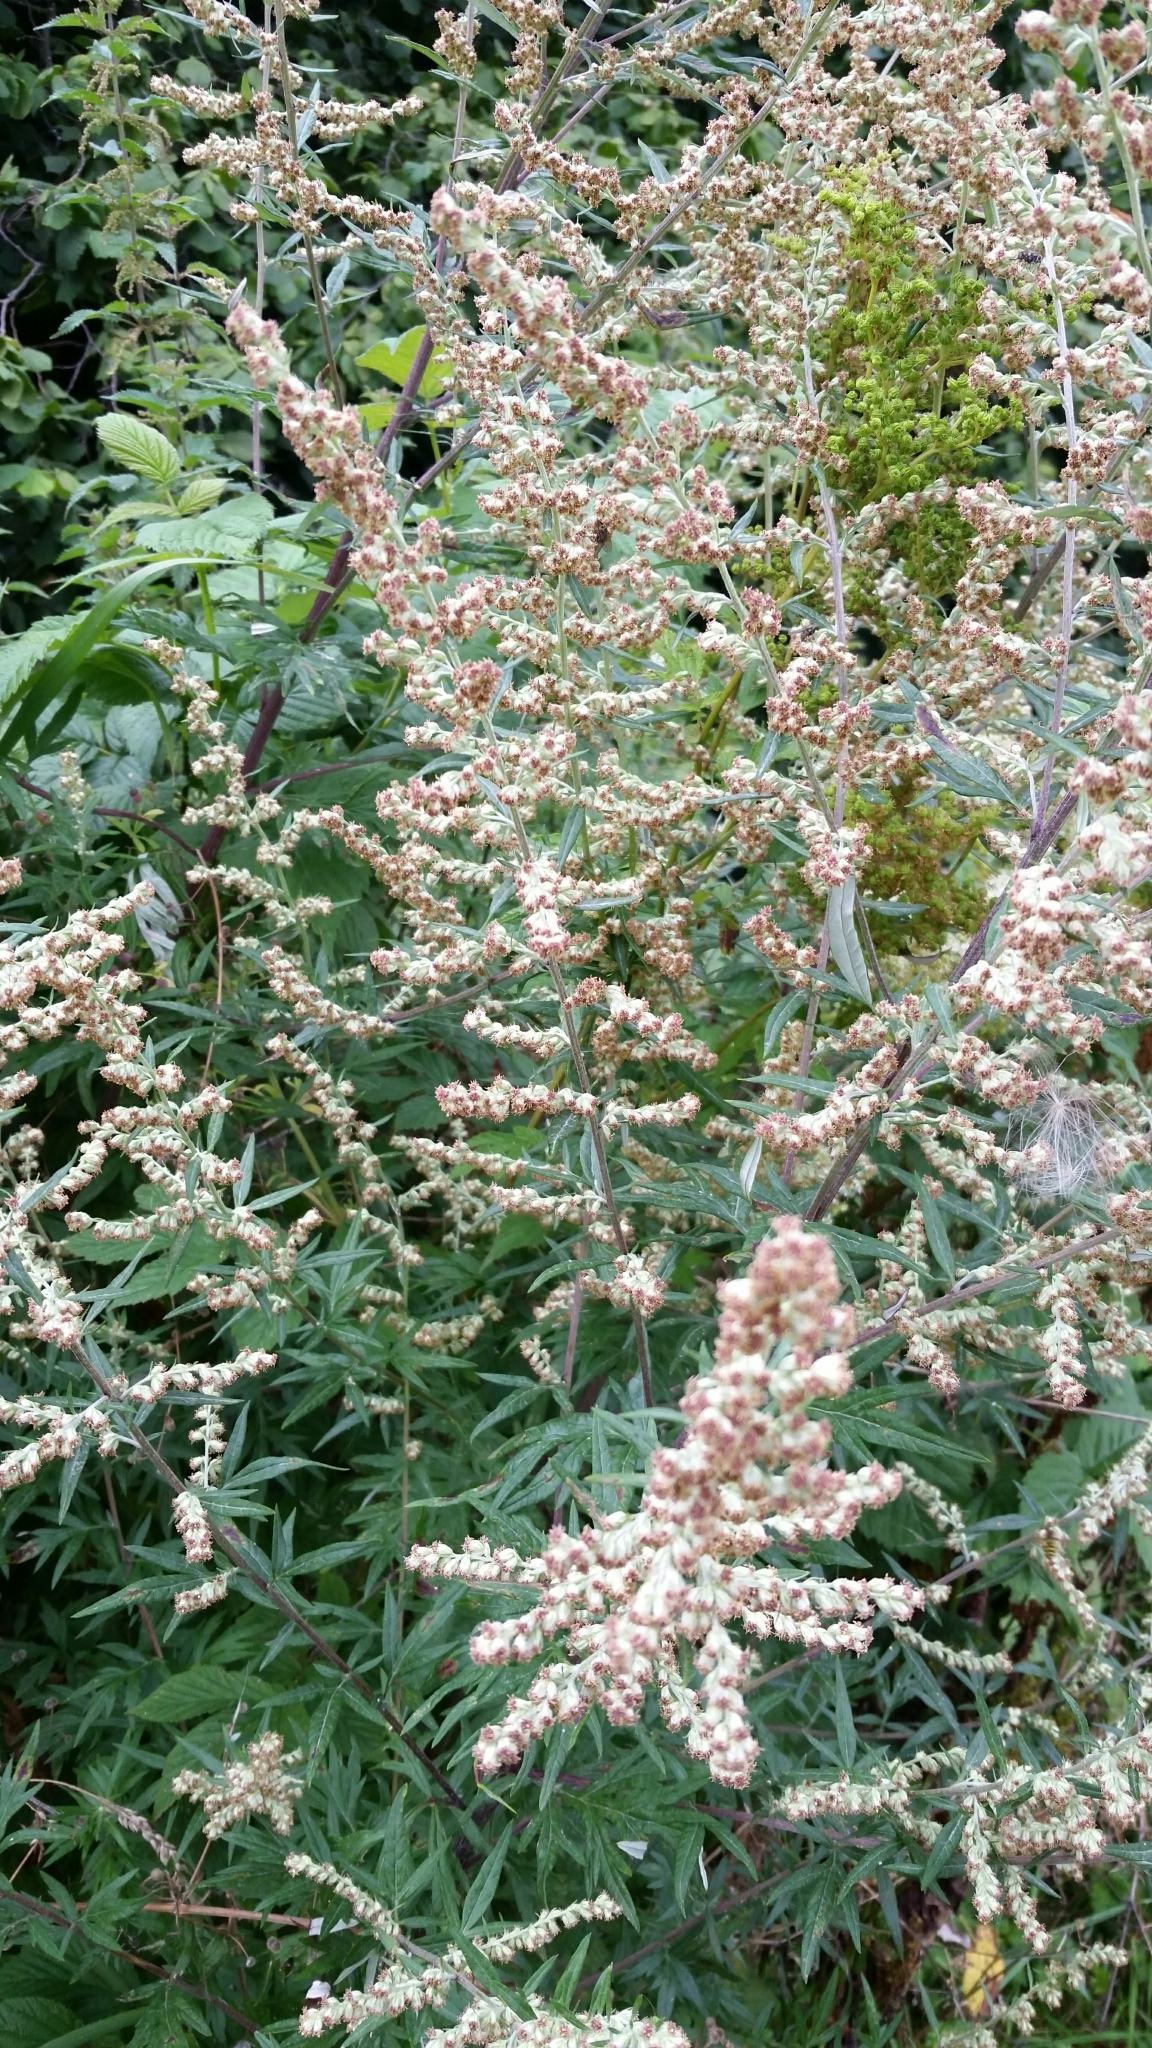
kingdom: Plantae
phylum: Tracheophyta
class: Magnoliopsida
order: Asterales
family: Asteraceae
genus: Artemisia
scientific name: Artemisia vulgaris
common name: Mugwort
